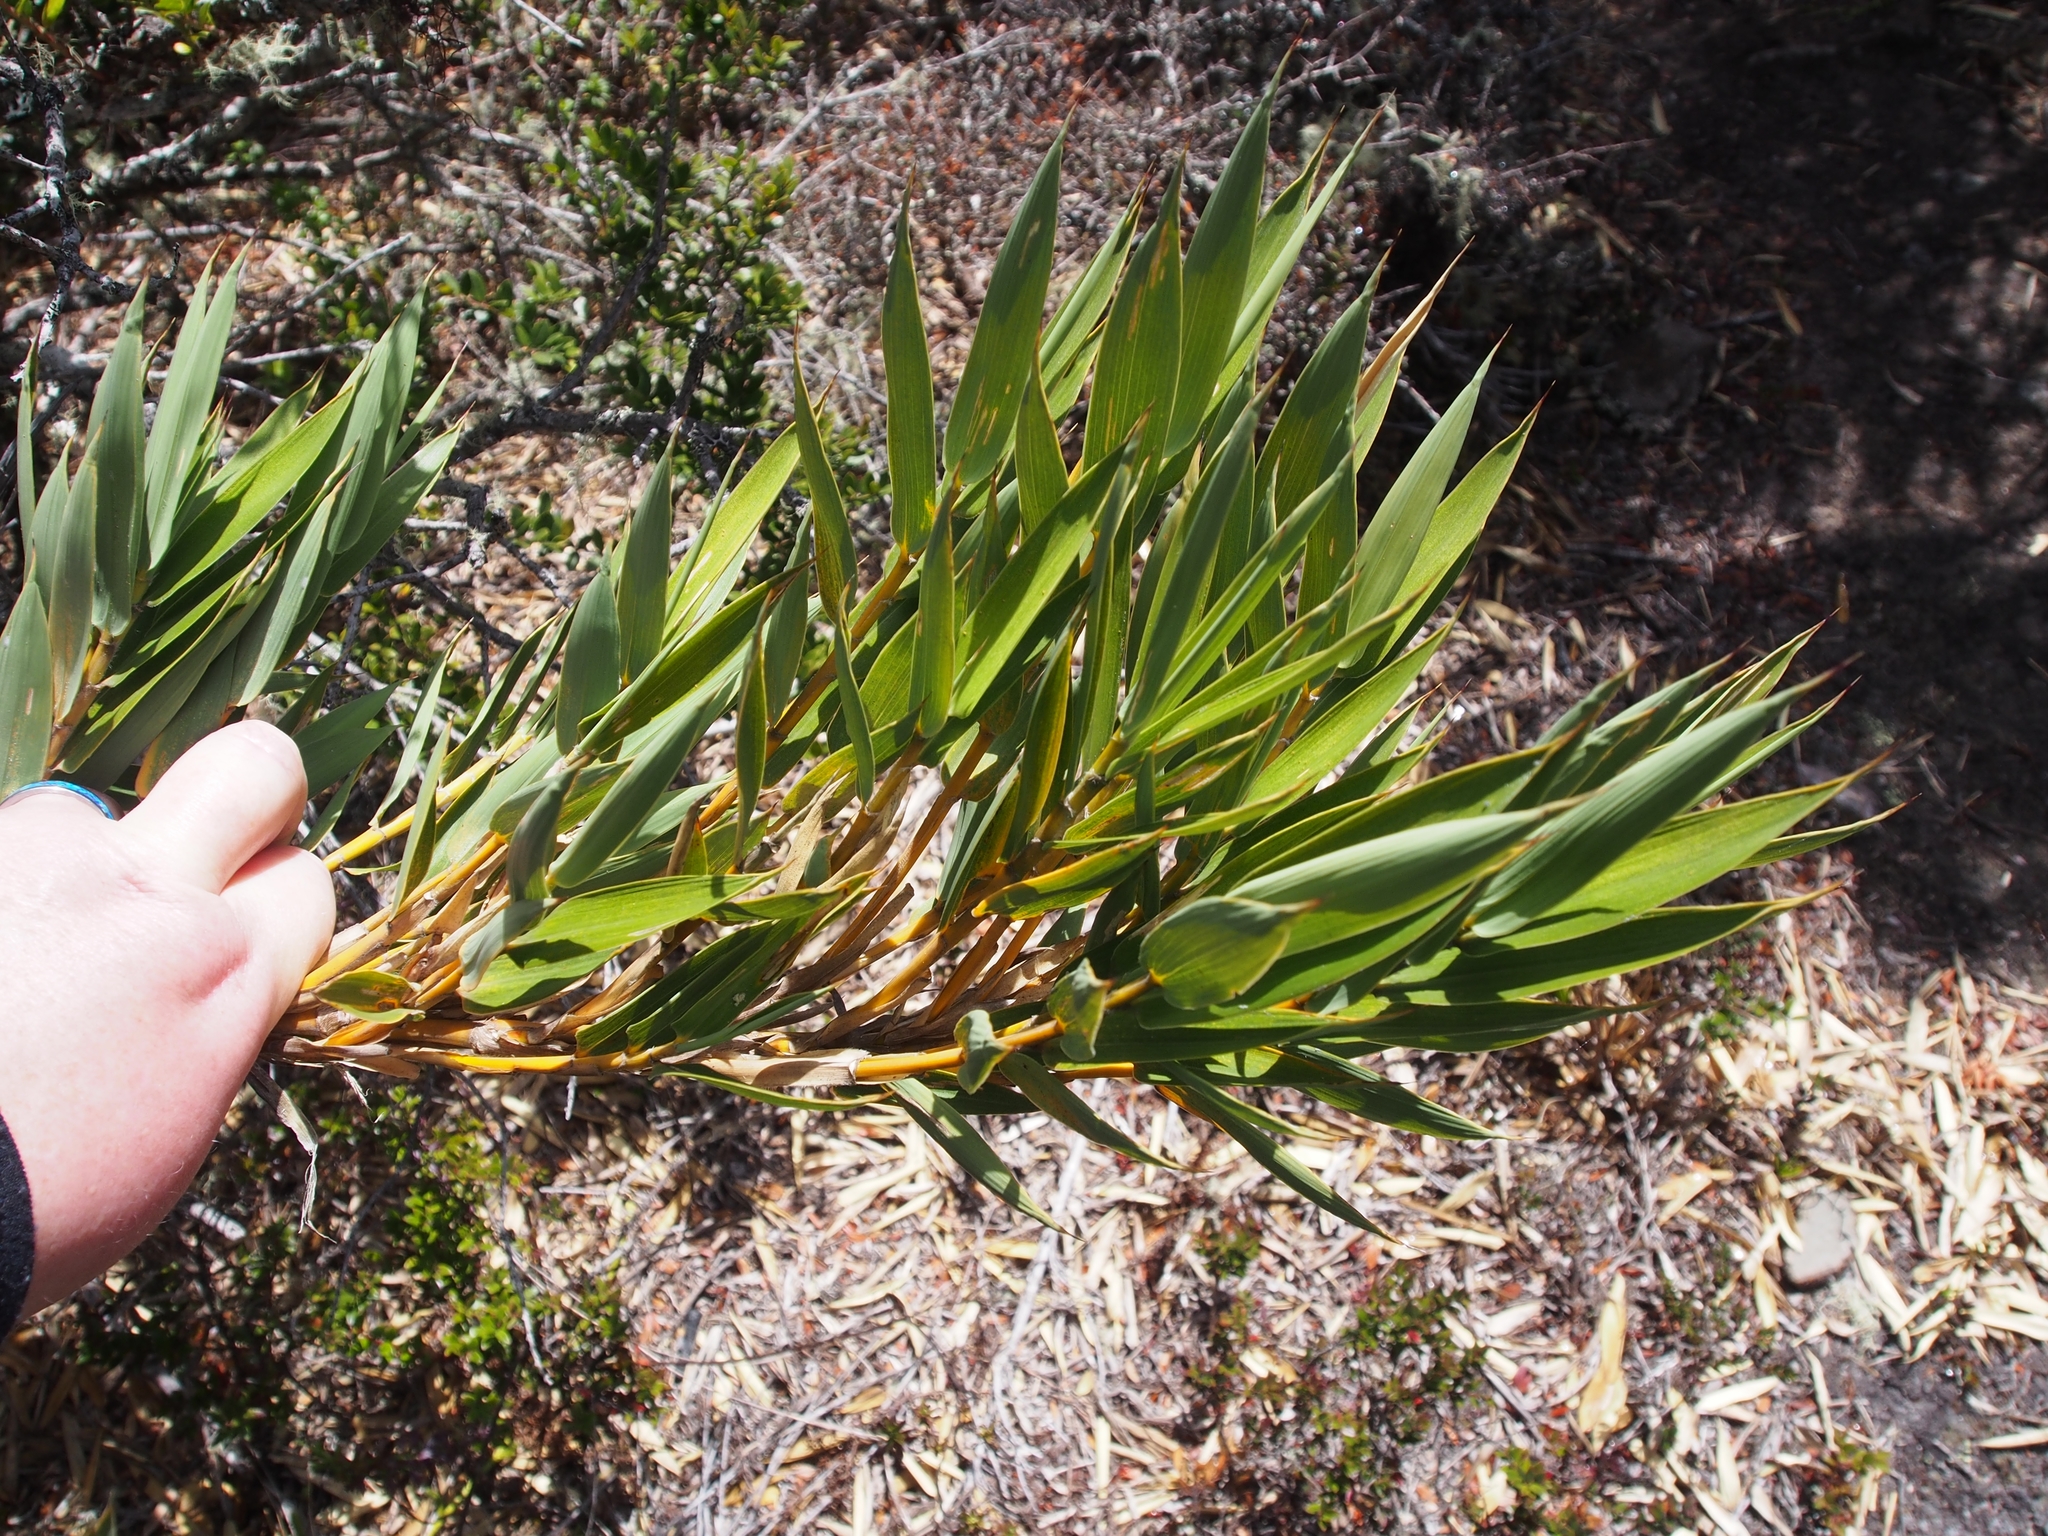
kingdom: Plantae
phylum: Tracheophyta
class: Liliopsida
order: Poales
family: Poaceae
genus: Chusquea
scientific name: Chusquea subtessellata
